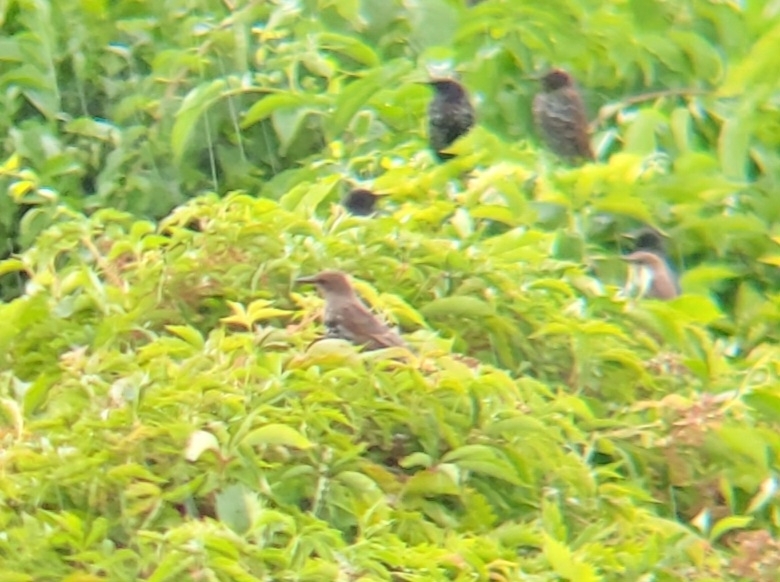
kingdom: Animalia
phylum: Chordata
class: Aves
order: Passeriformes
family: Sturnidae
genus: Sturnus
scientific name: Sturnus vulgaris
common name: Common starling
